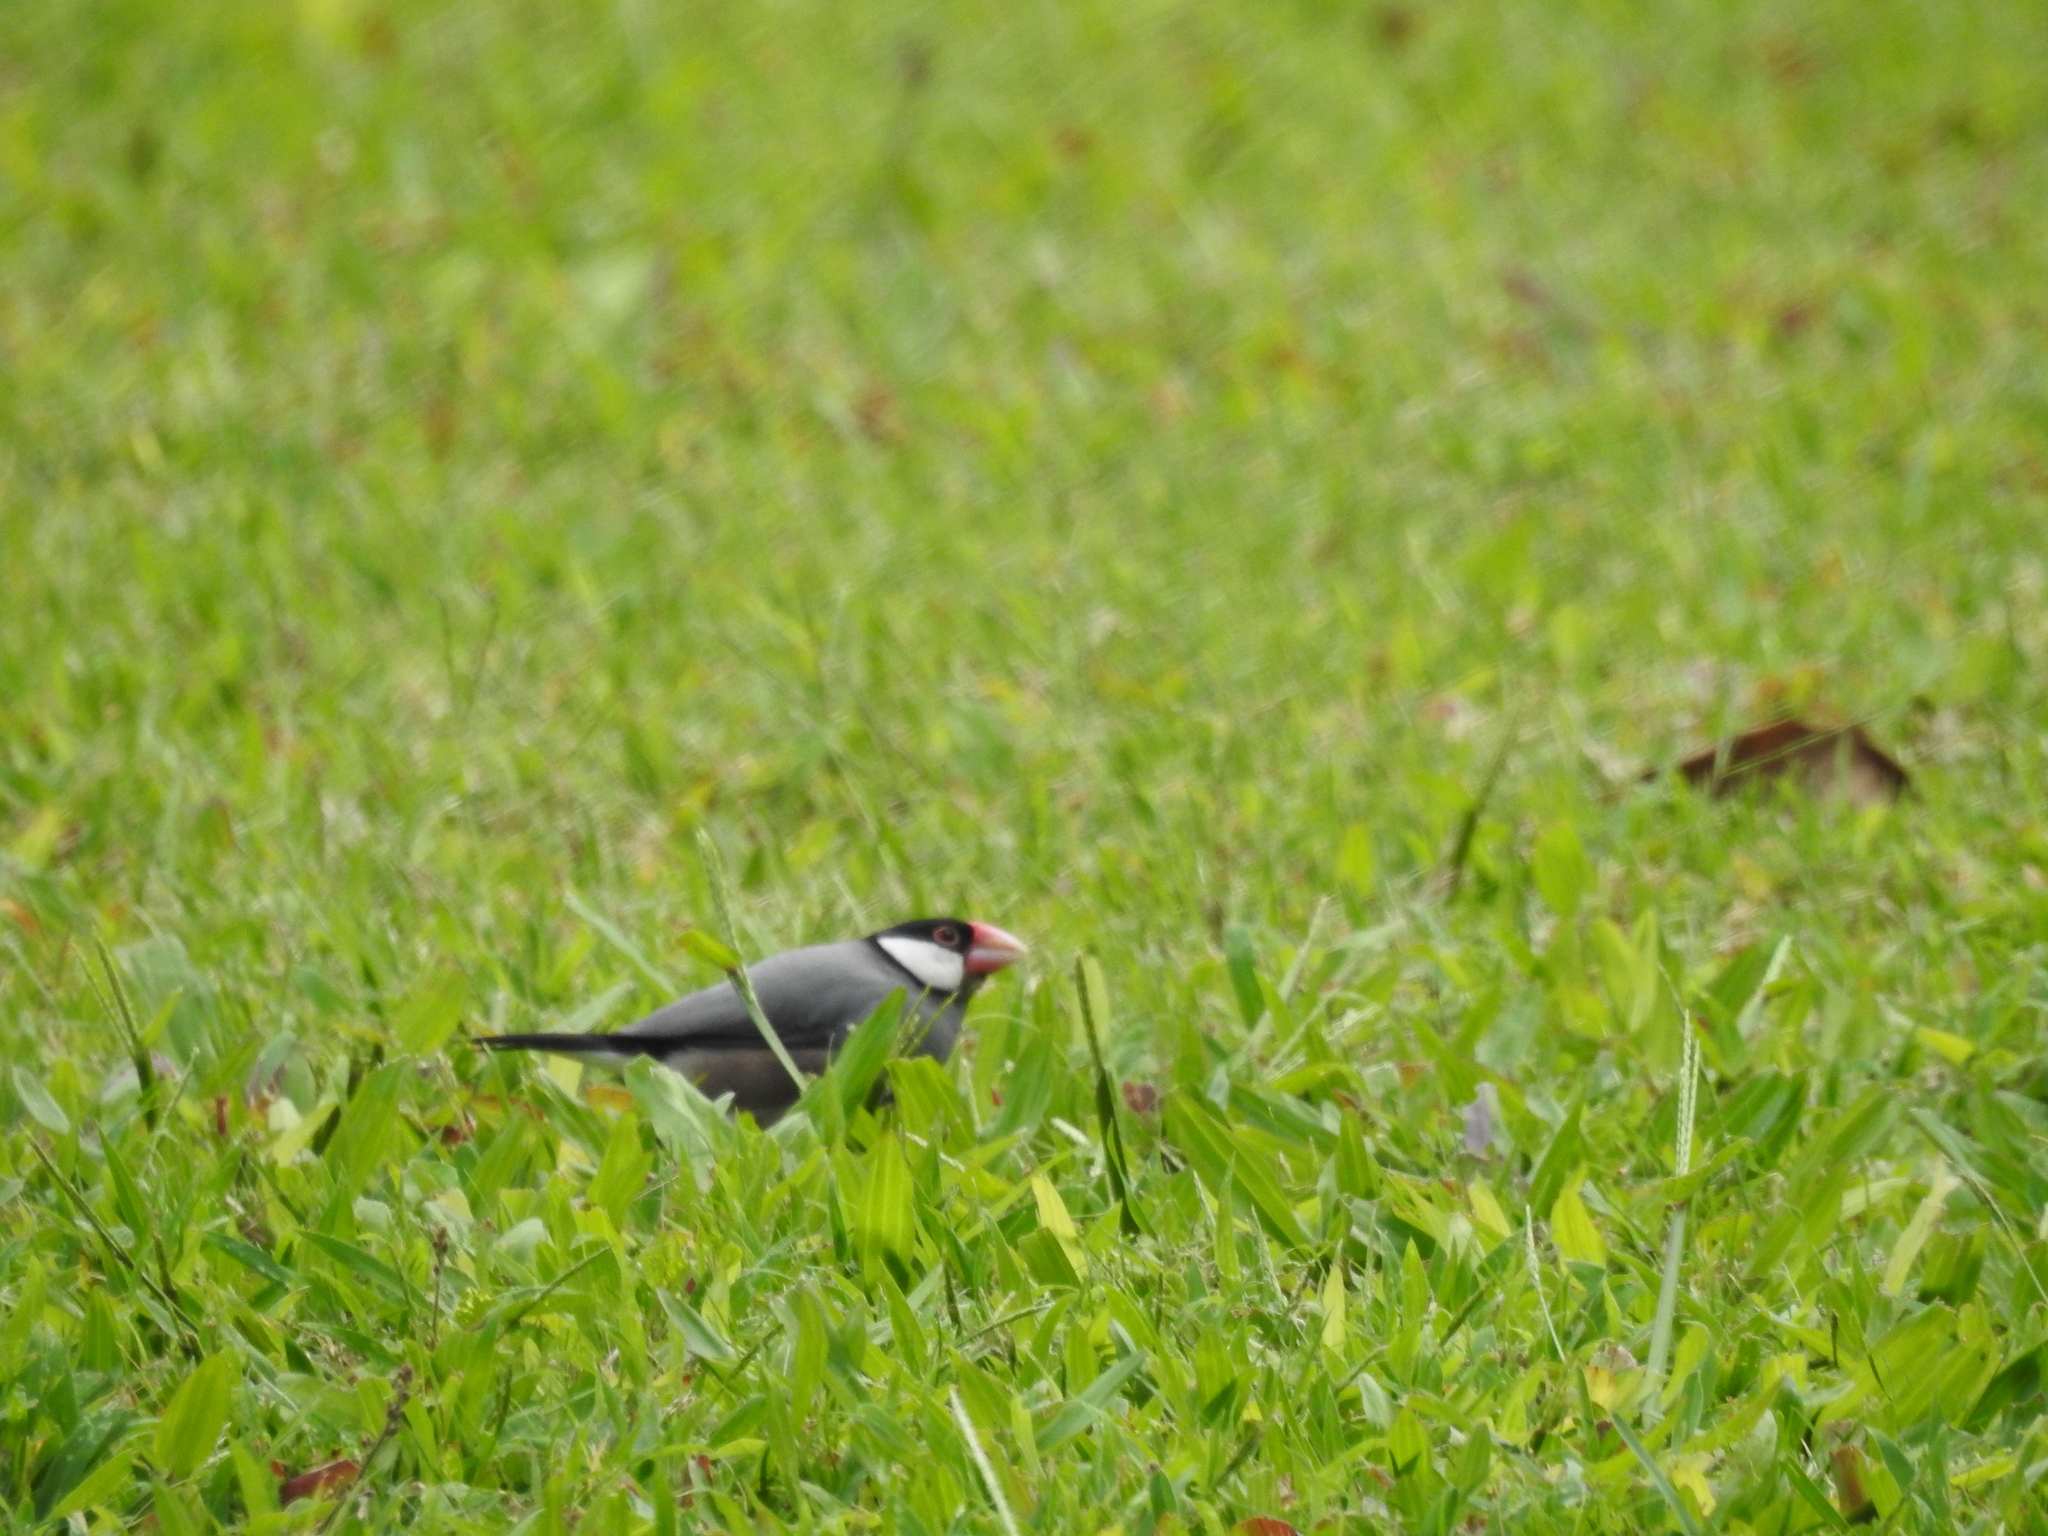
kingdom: Animalia
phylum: Chordata
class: Aves
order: Passeriformes
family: Estrildidae
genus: Lonchura
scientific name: Lonchura oryzivora
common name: Java sparrow
